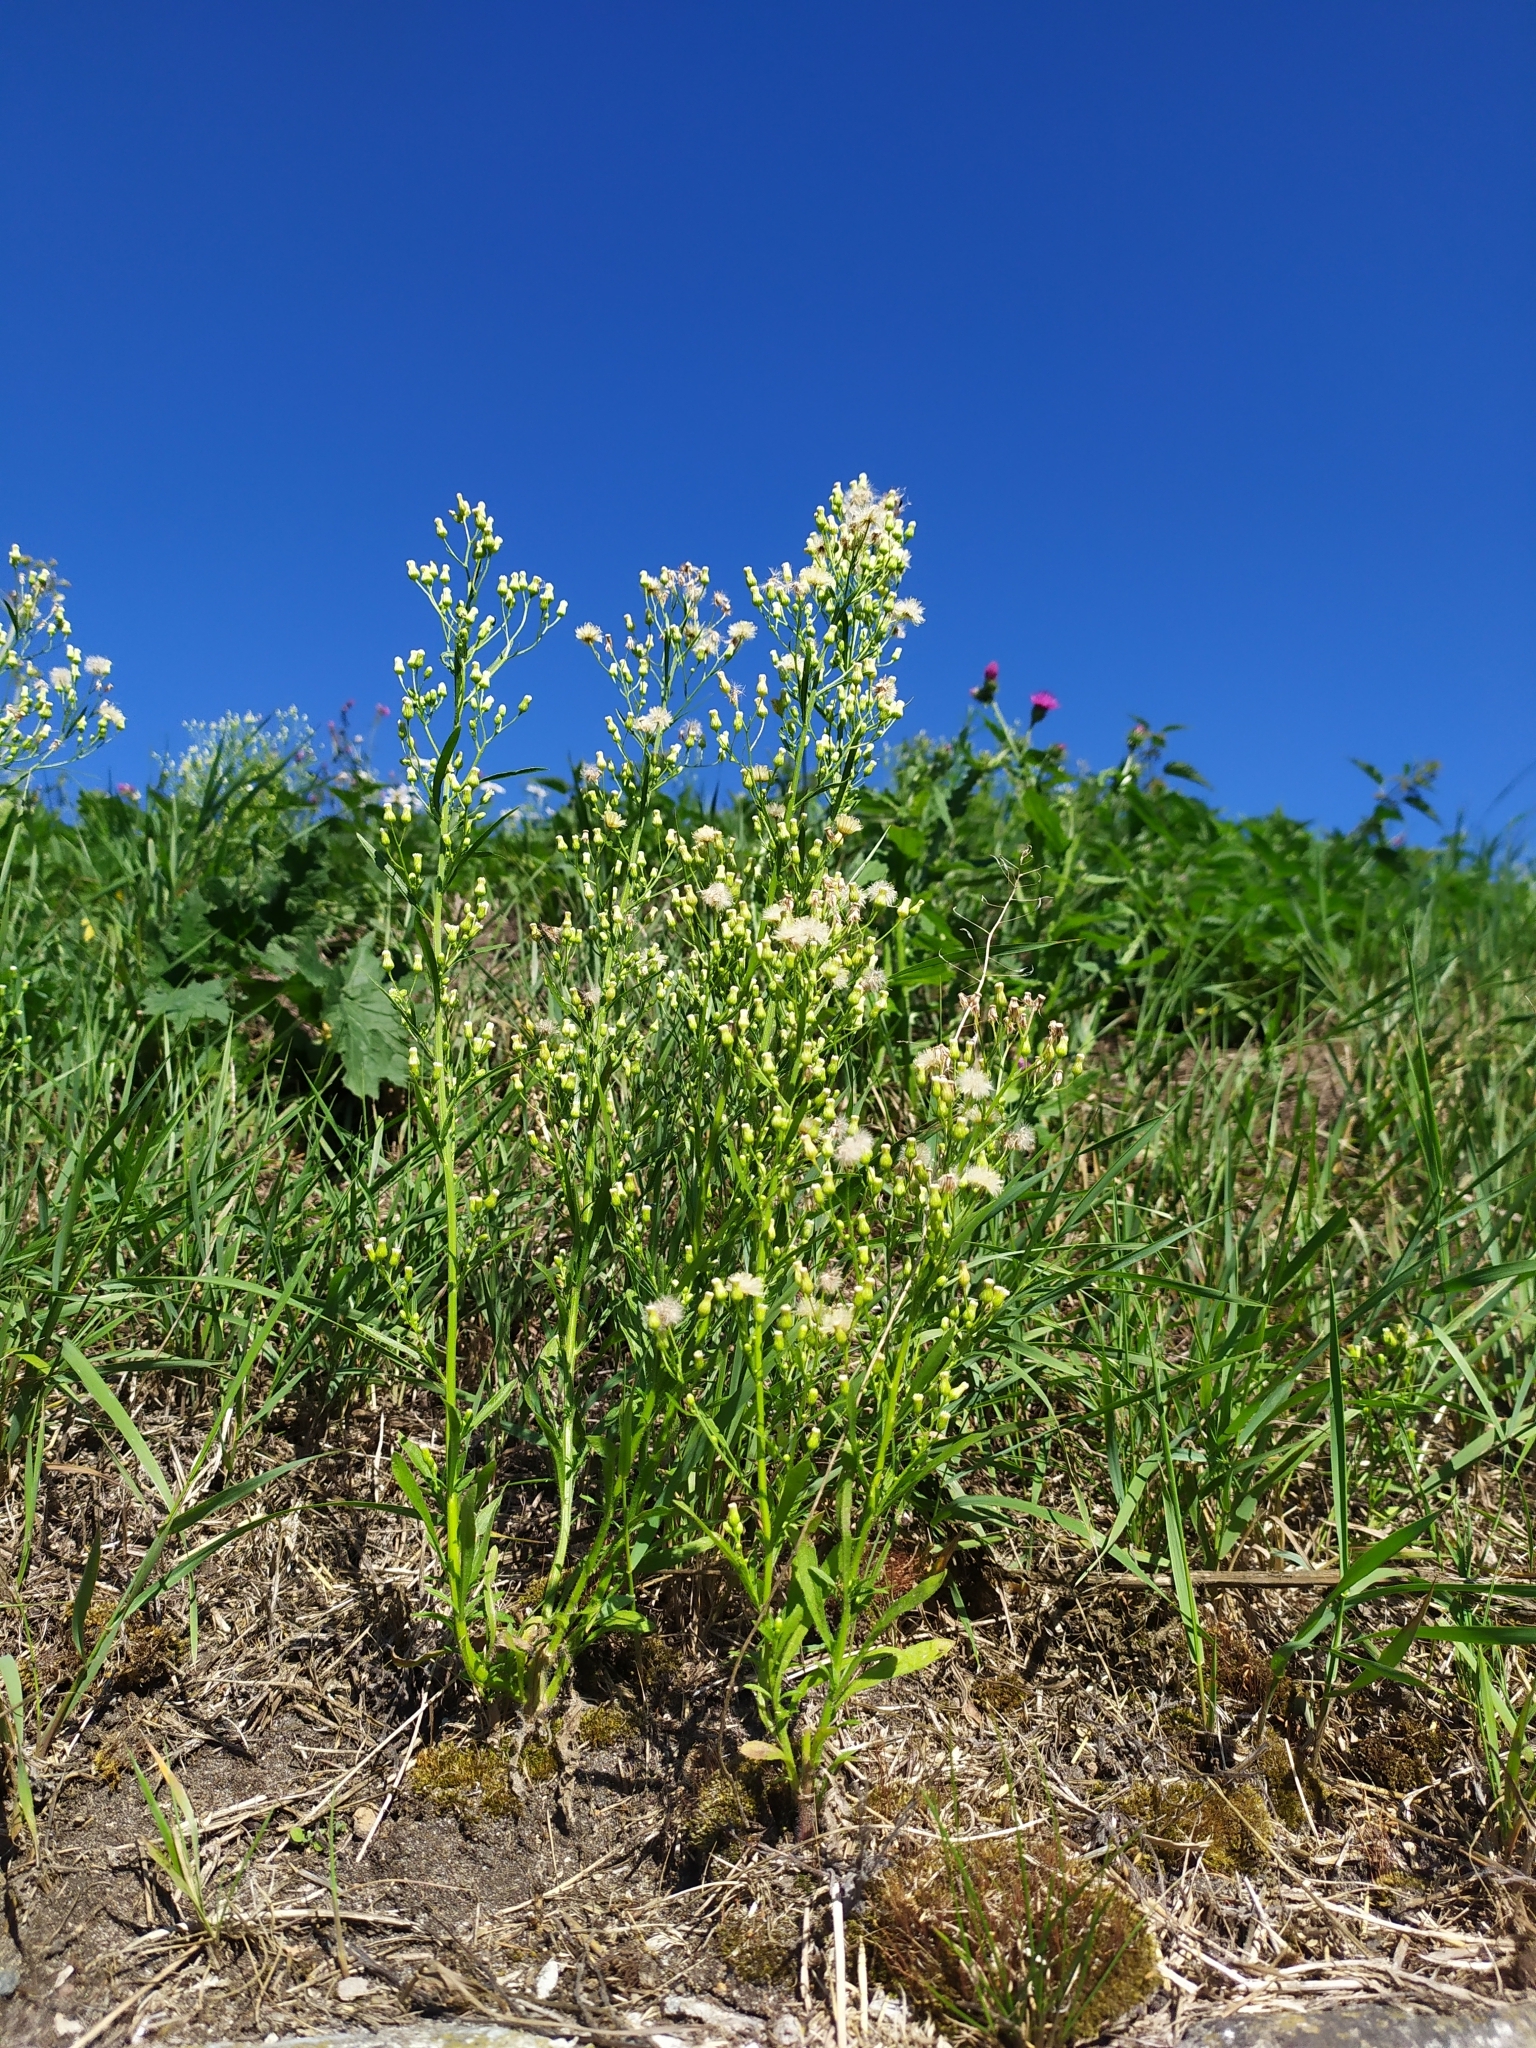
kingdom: Plantae
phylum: Tracheophyta
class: Magnoliopsida
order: Asterales
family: Asteraceae
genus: Erigeron
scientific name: Erigeron canadensis
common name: Canadian fleabane
